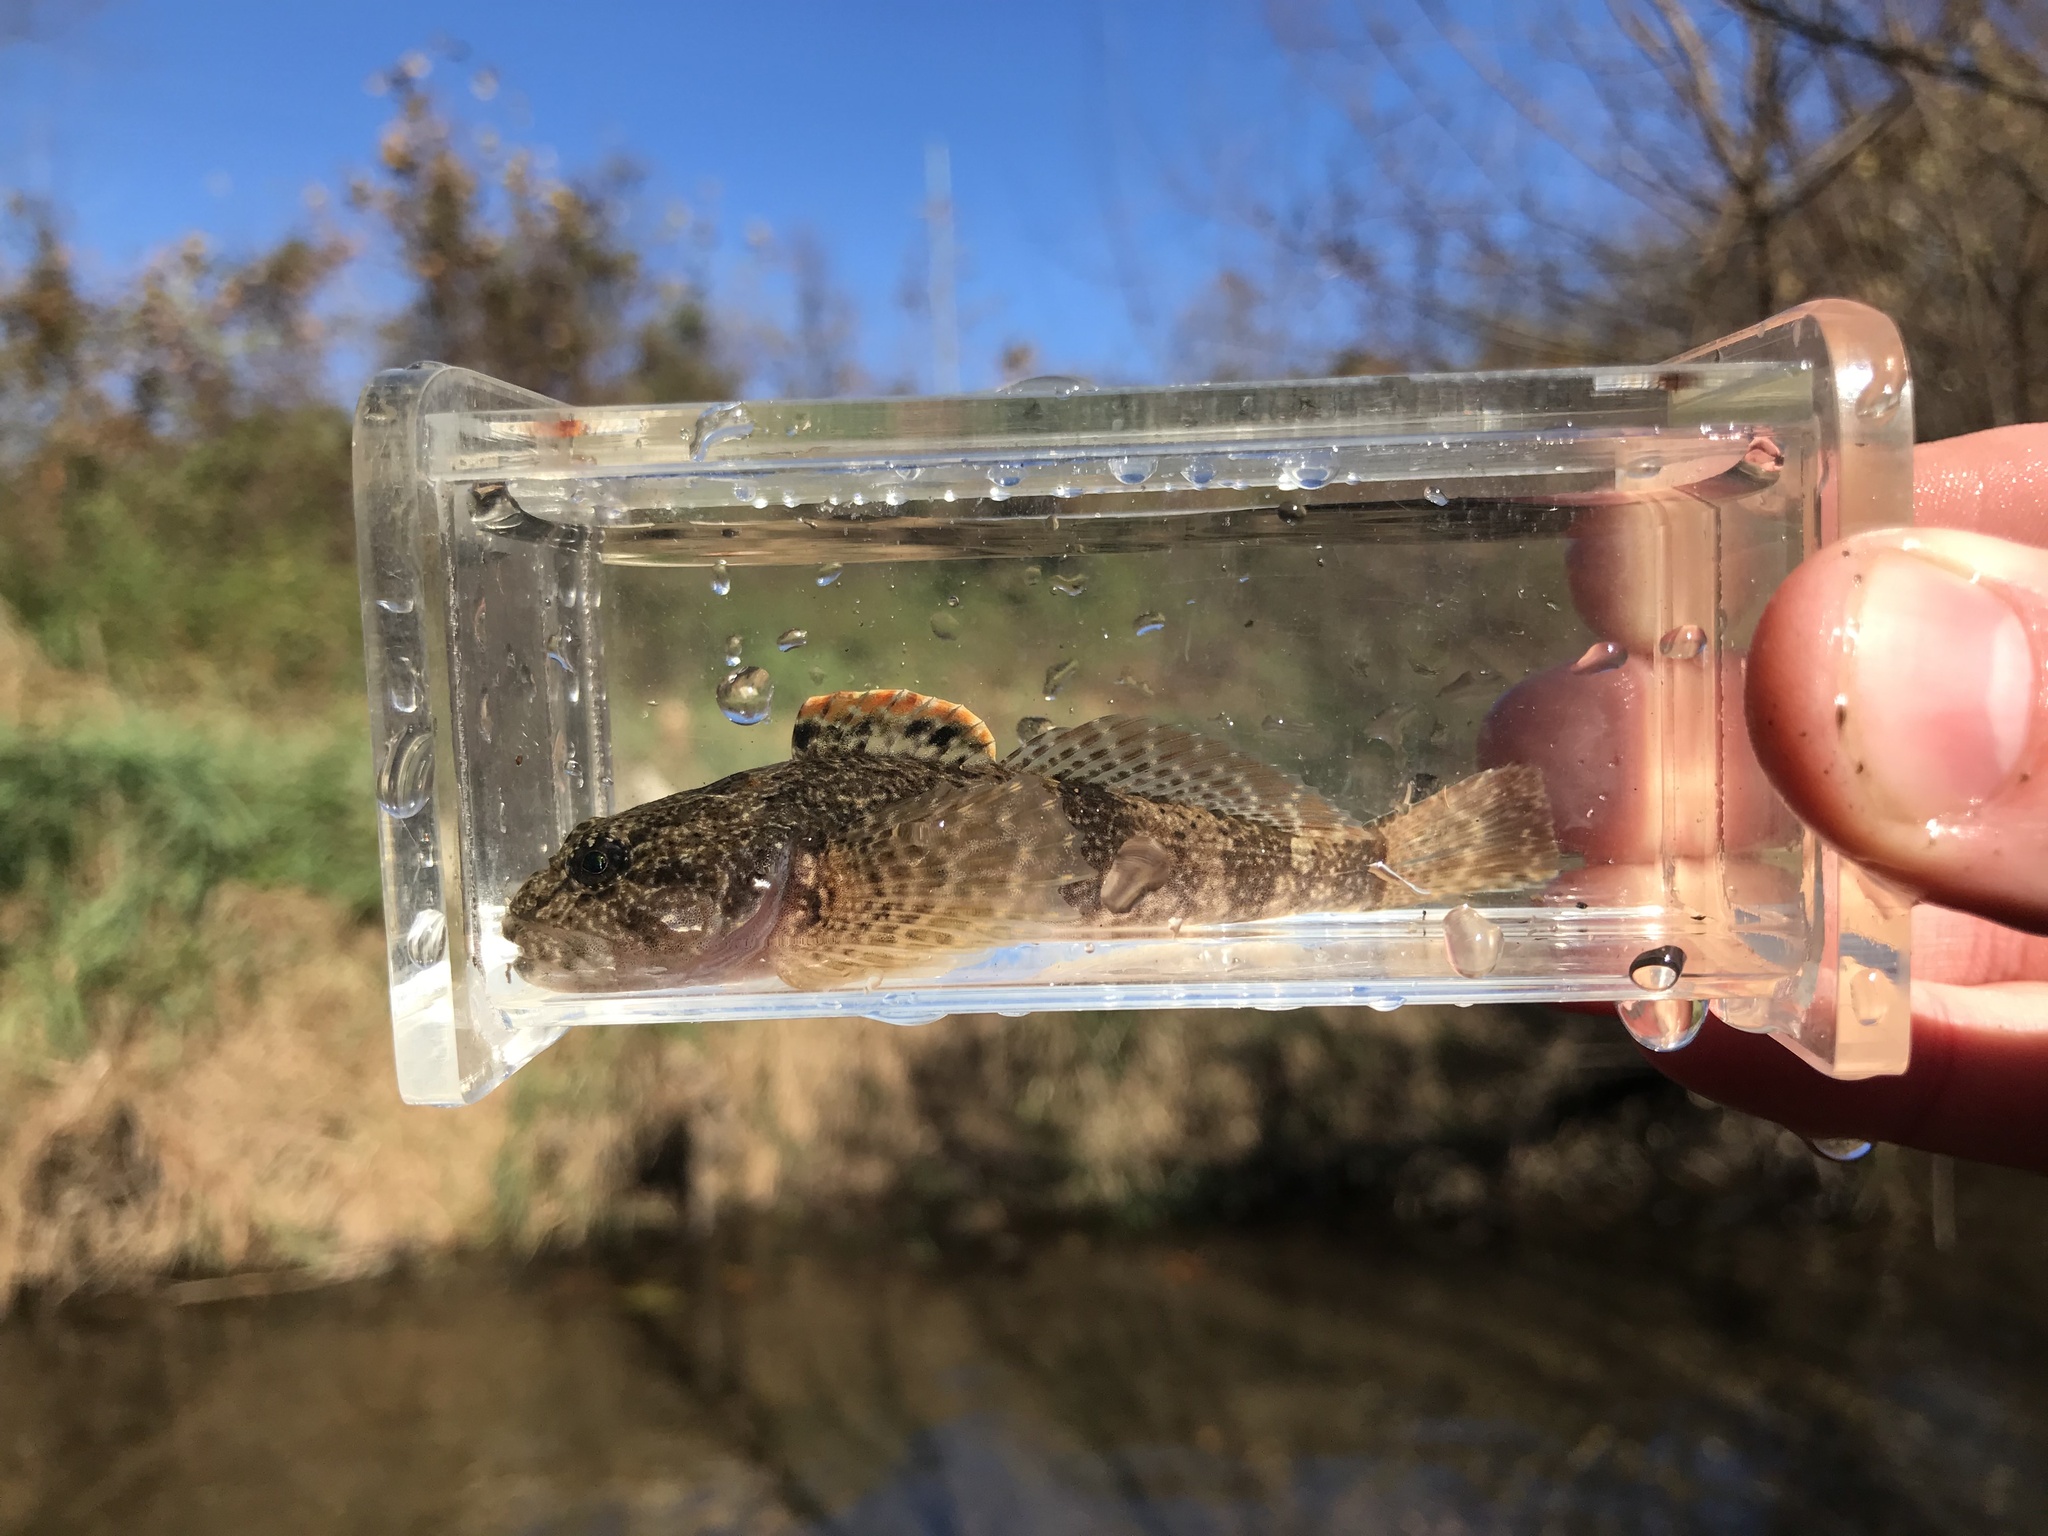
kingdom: Animalia
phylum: Chordata
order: Scorpaeniformes
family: Cottidae
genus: Cottus
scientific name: Cottus bairdii
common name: Mottled sculpin
